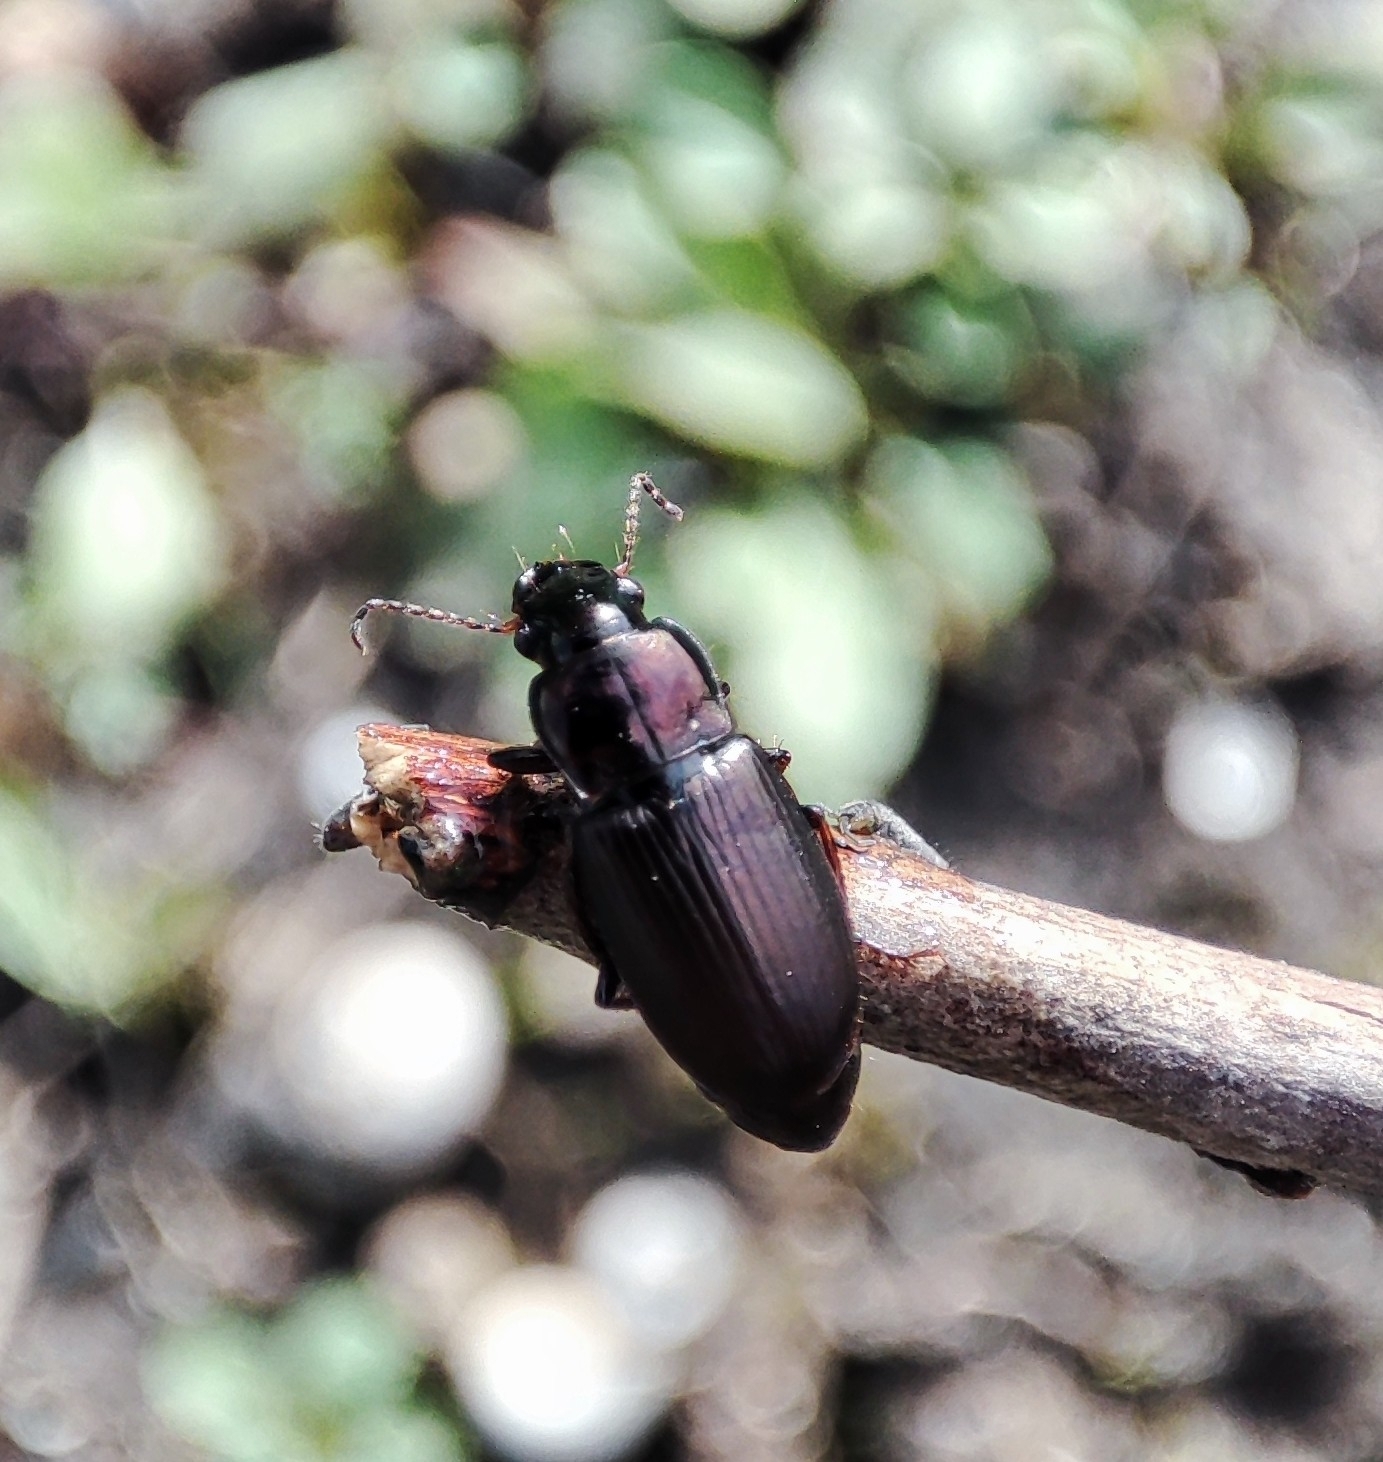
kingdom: Animalia
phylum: Arthropoda
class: Insecta
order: Coleoptera
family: Carabidae
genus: Harpalus
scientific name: Harpalus distinguendus
